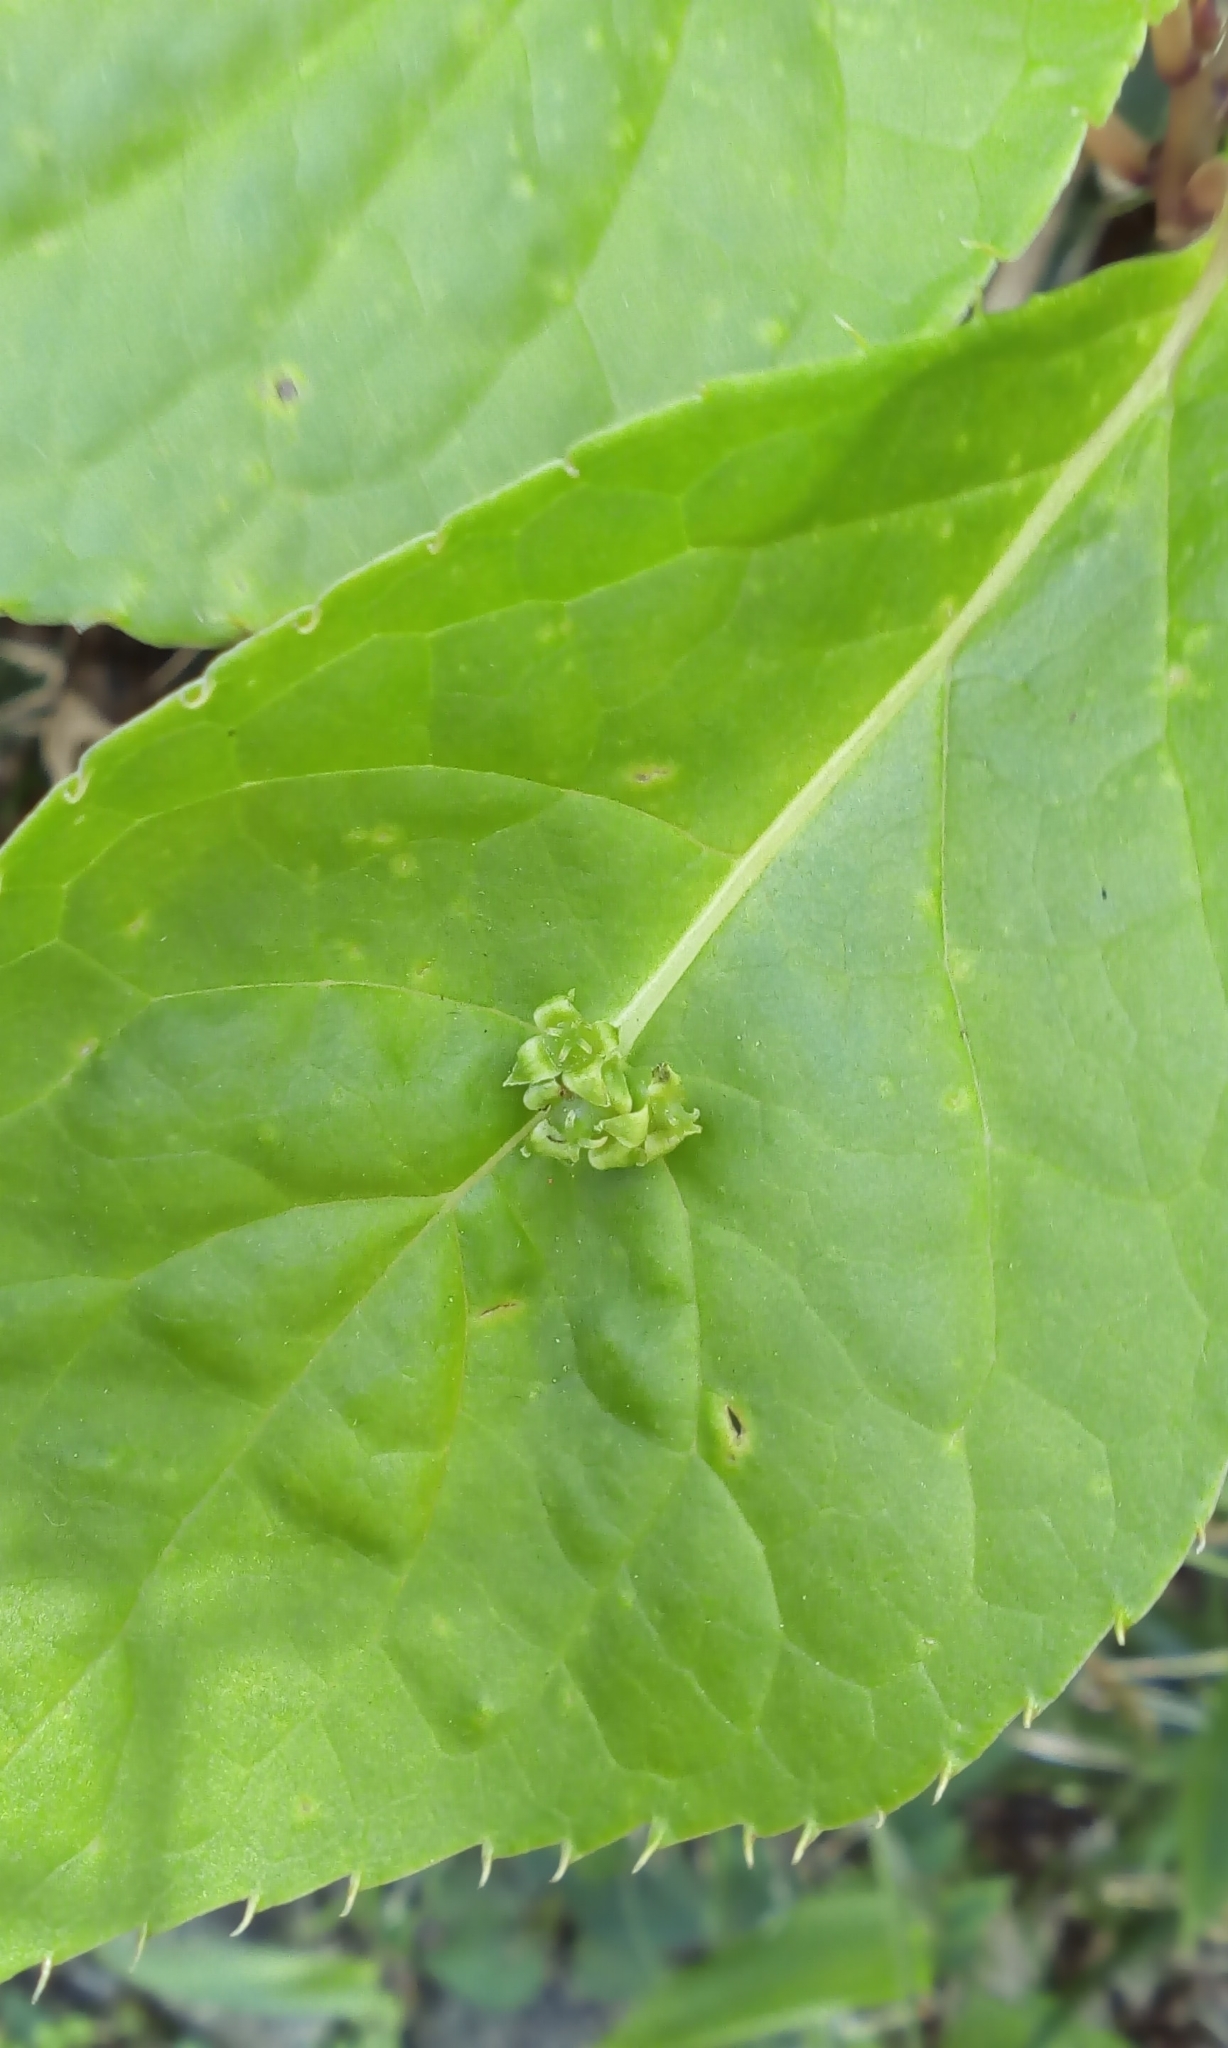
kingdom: Plantae
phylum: Tracheophyta
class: Magnoliopsida
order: Aquifoliales
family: Helwingiaceae
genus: Helwingia
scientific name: Helwingia japonica
